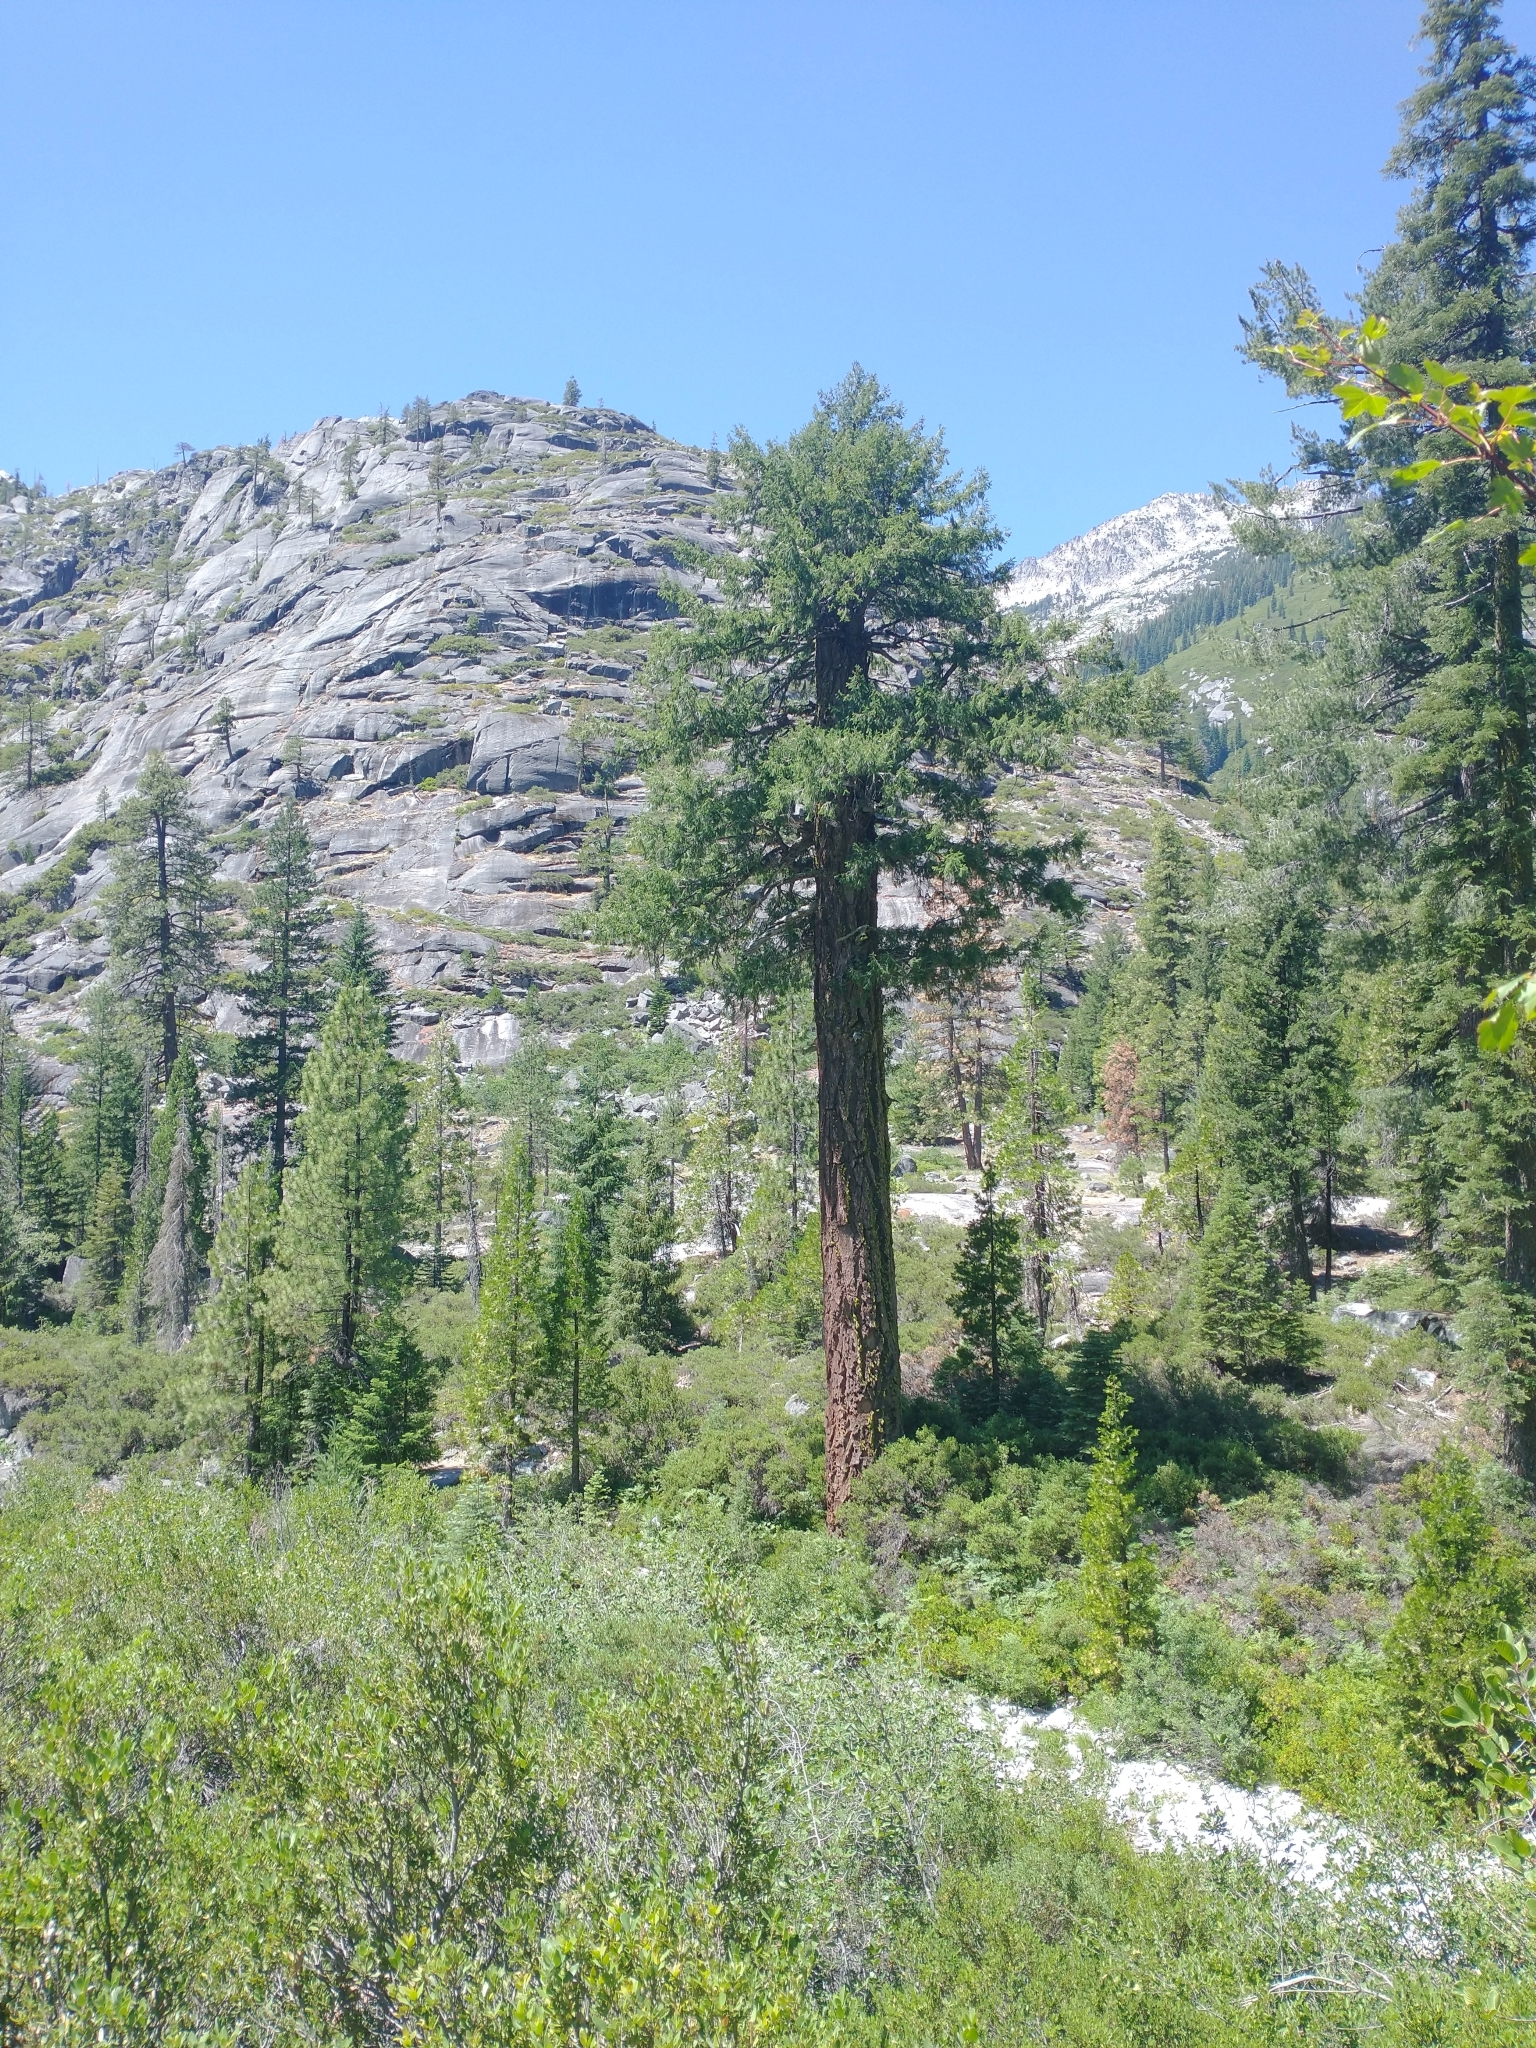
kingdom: Plantae
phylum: Tracheophyta
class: Pinopsida
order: Pinales
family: Pinaceae
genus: Pseudotsuga
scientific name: Pseudotsuga menziesii
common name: Douglas fir
